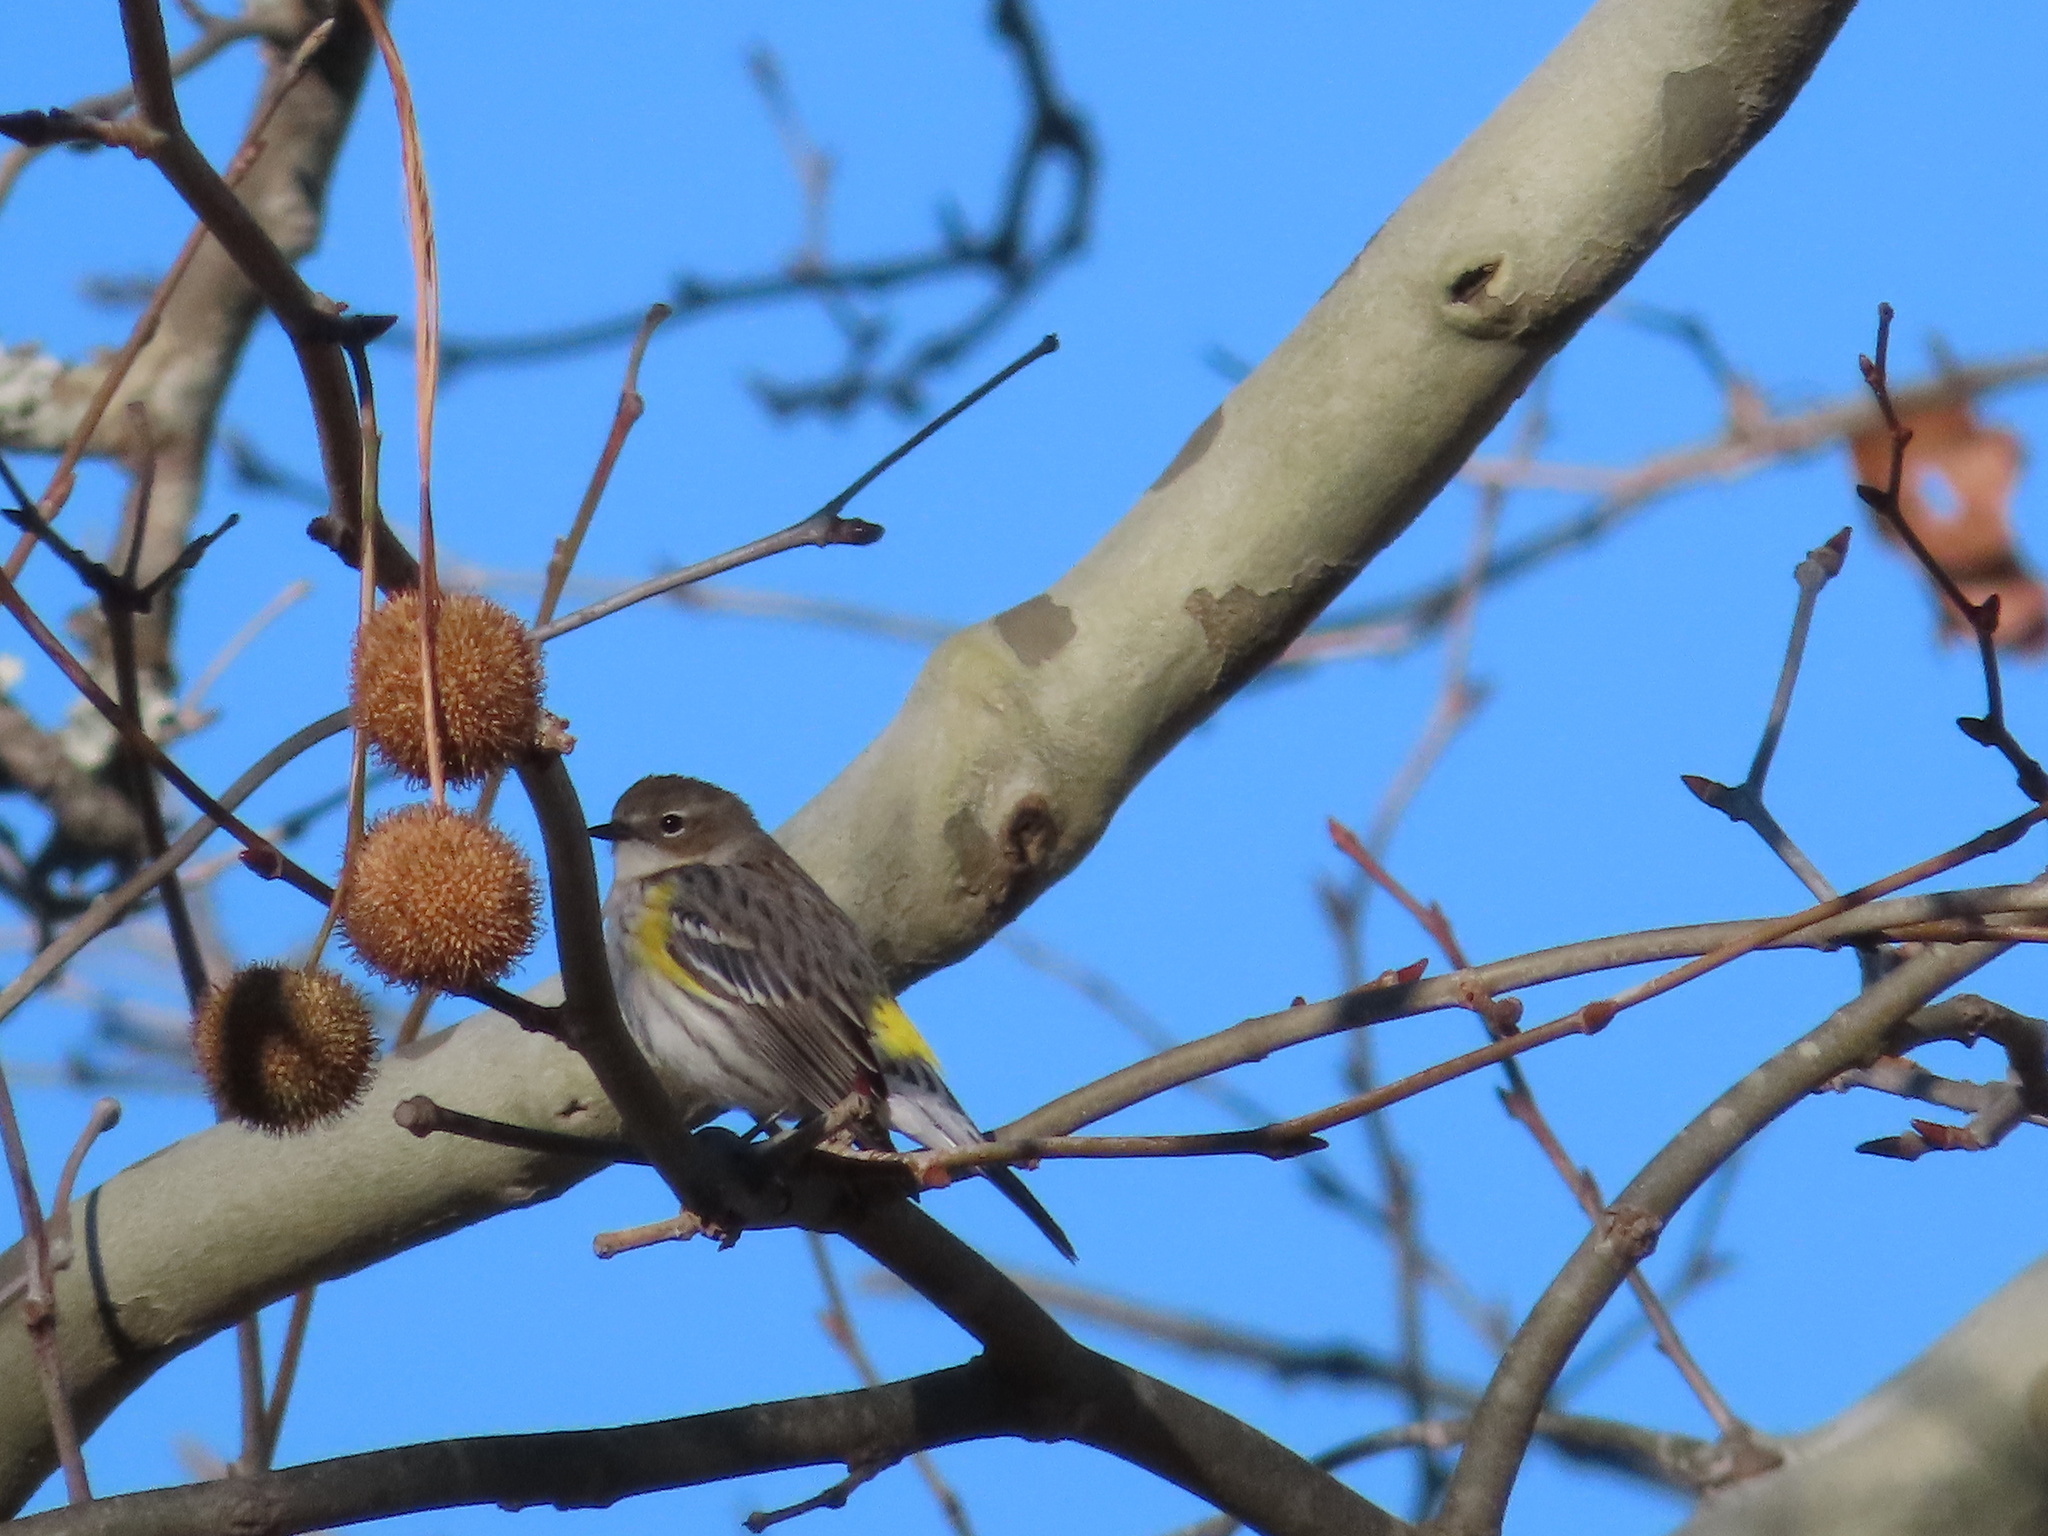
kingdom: Animalia
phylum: Chordata
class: Aves
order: Passeriformes
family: Parulidae
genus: Setophaga
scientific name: Setophaga coronata
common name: Myrtle warbler
